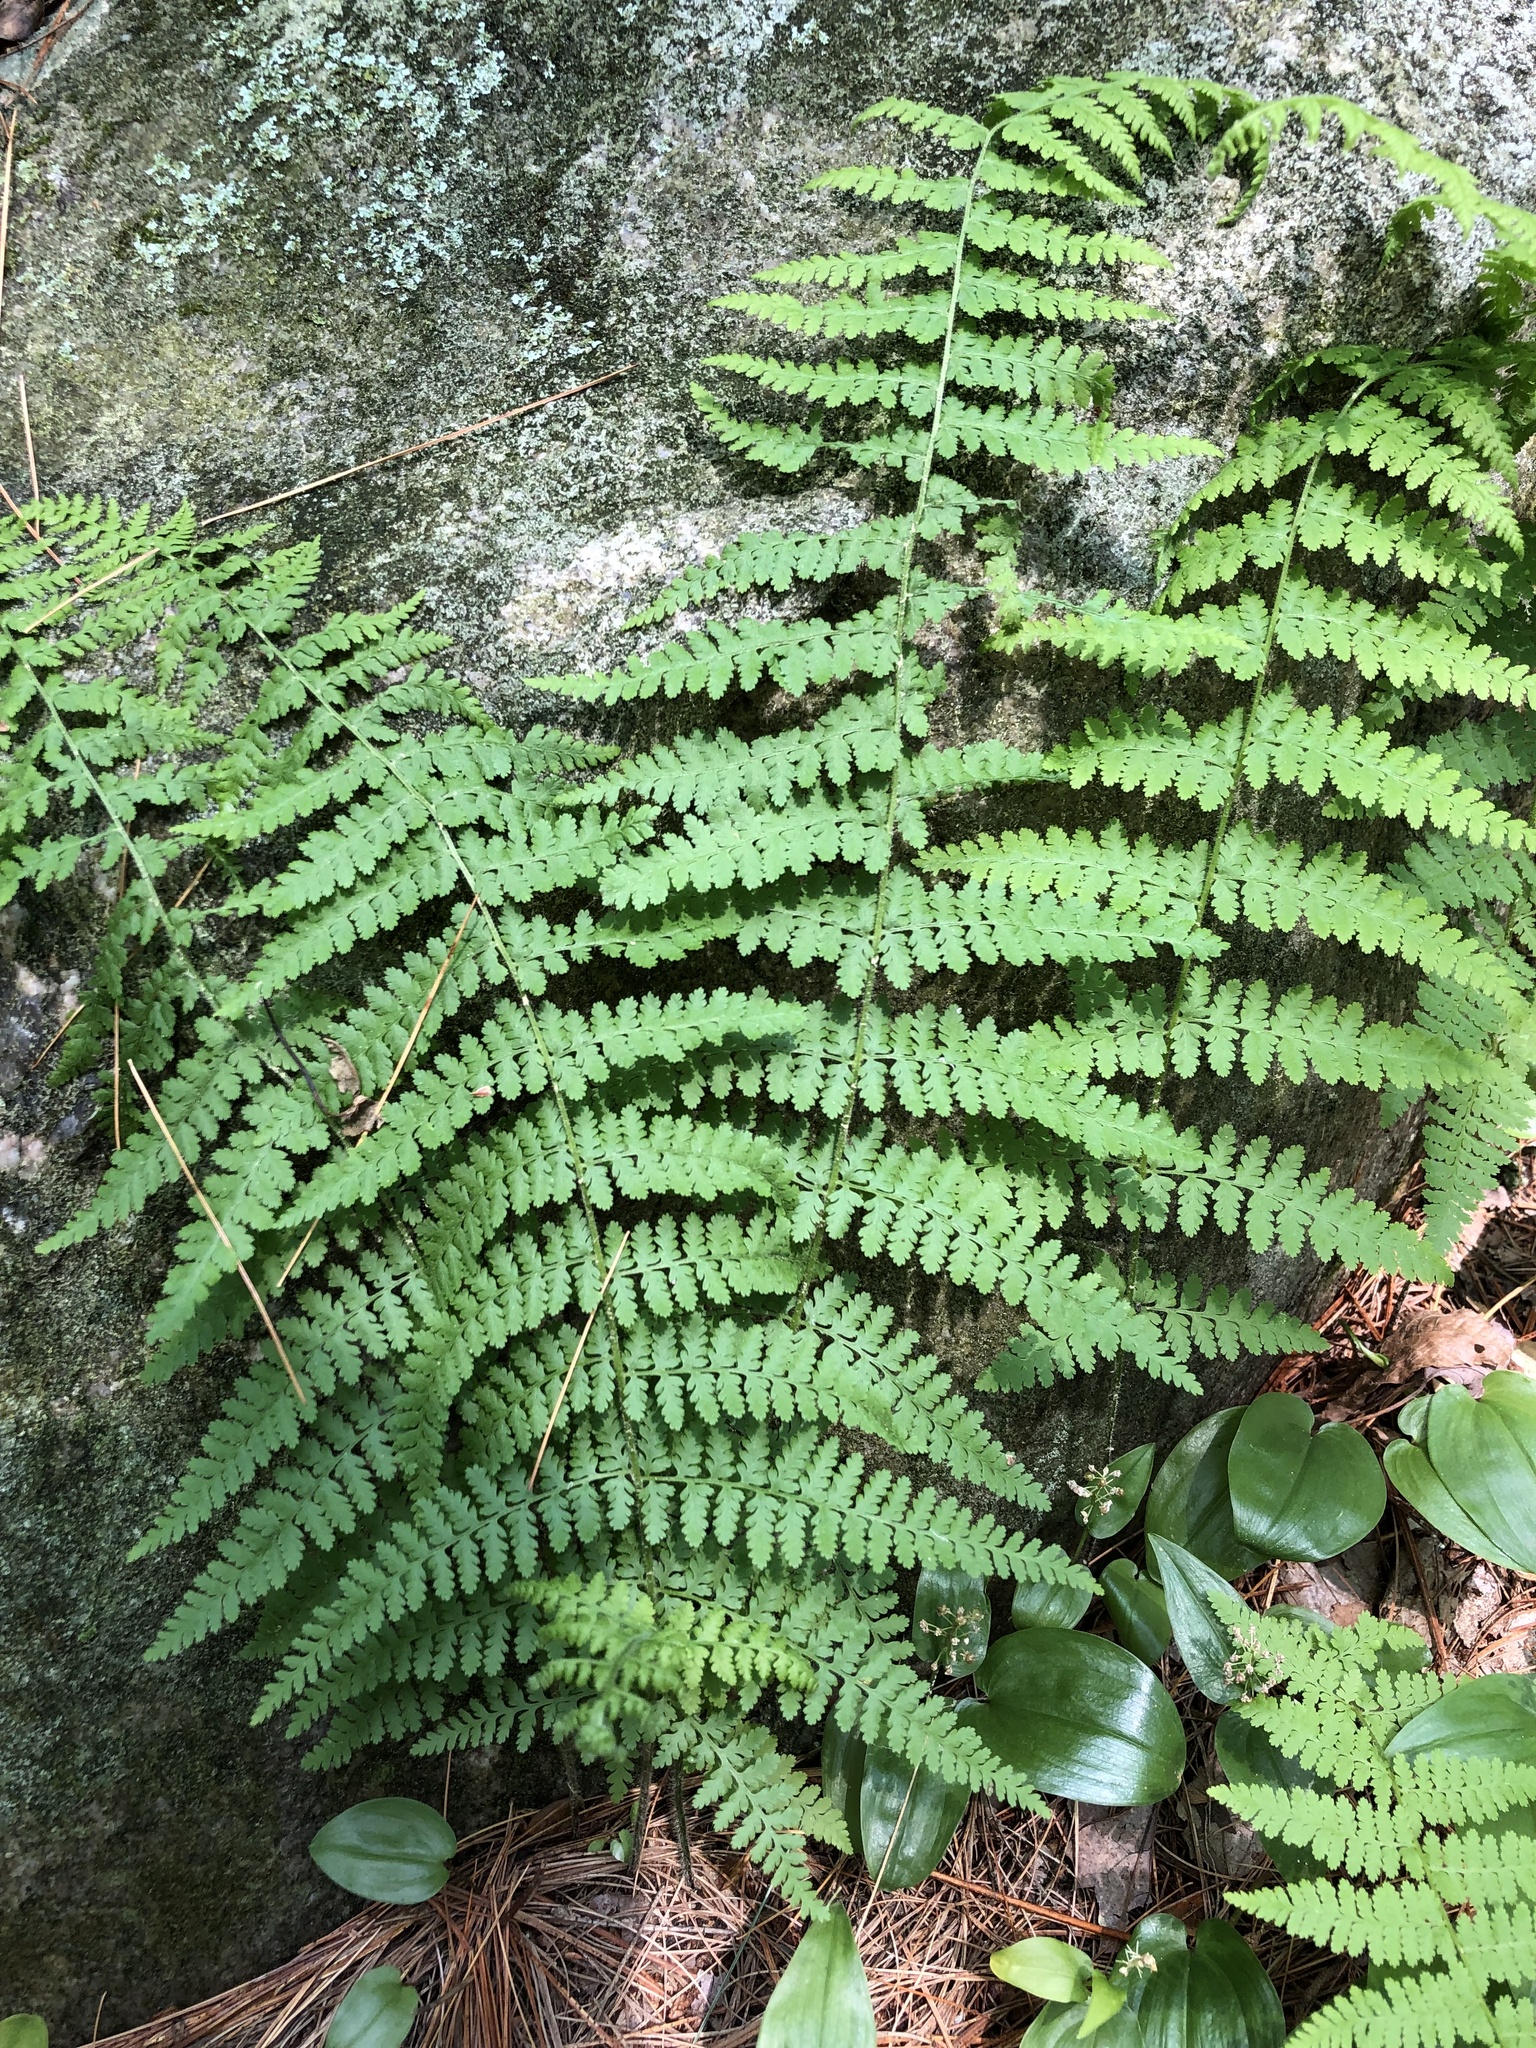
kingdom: Plantae
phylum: Tracheophyta
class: Polypodiopsida
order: Polypodiales
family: Dennstaedtiaceae
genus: Sitobolium
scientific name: Sitobolium punctilobum
